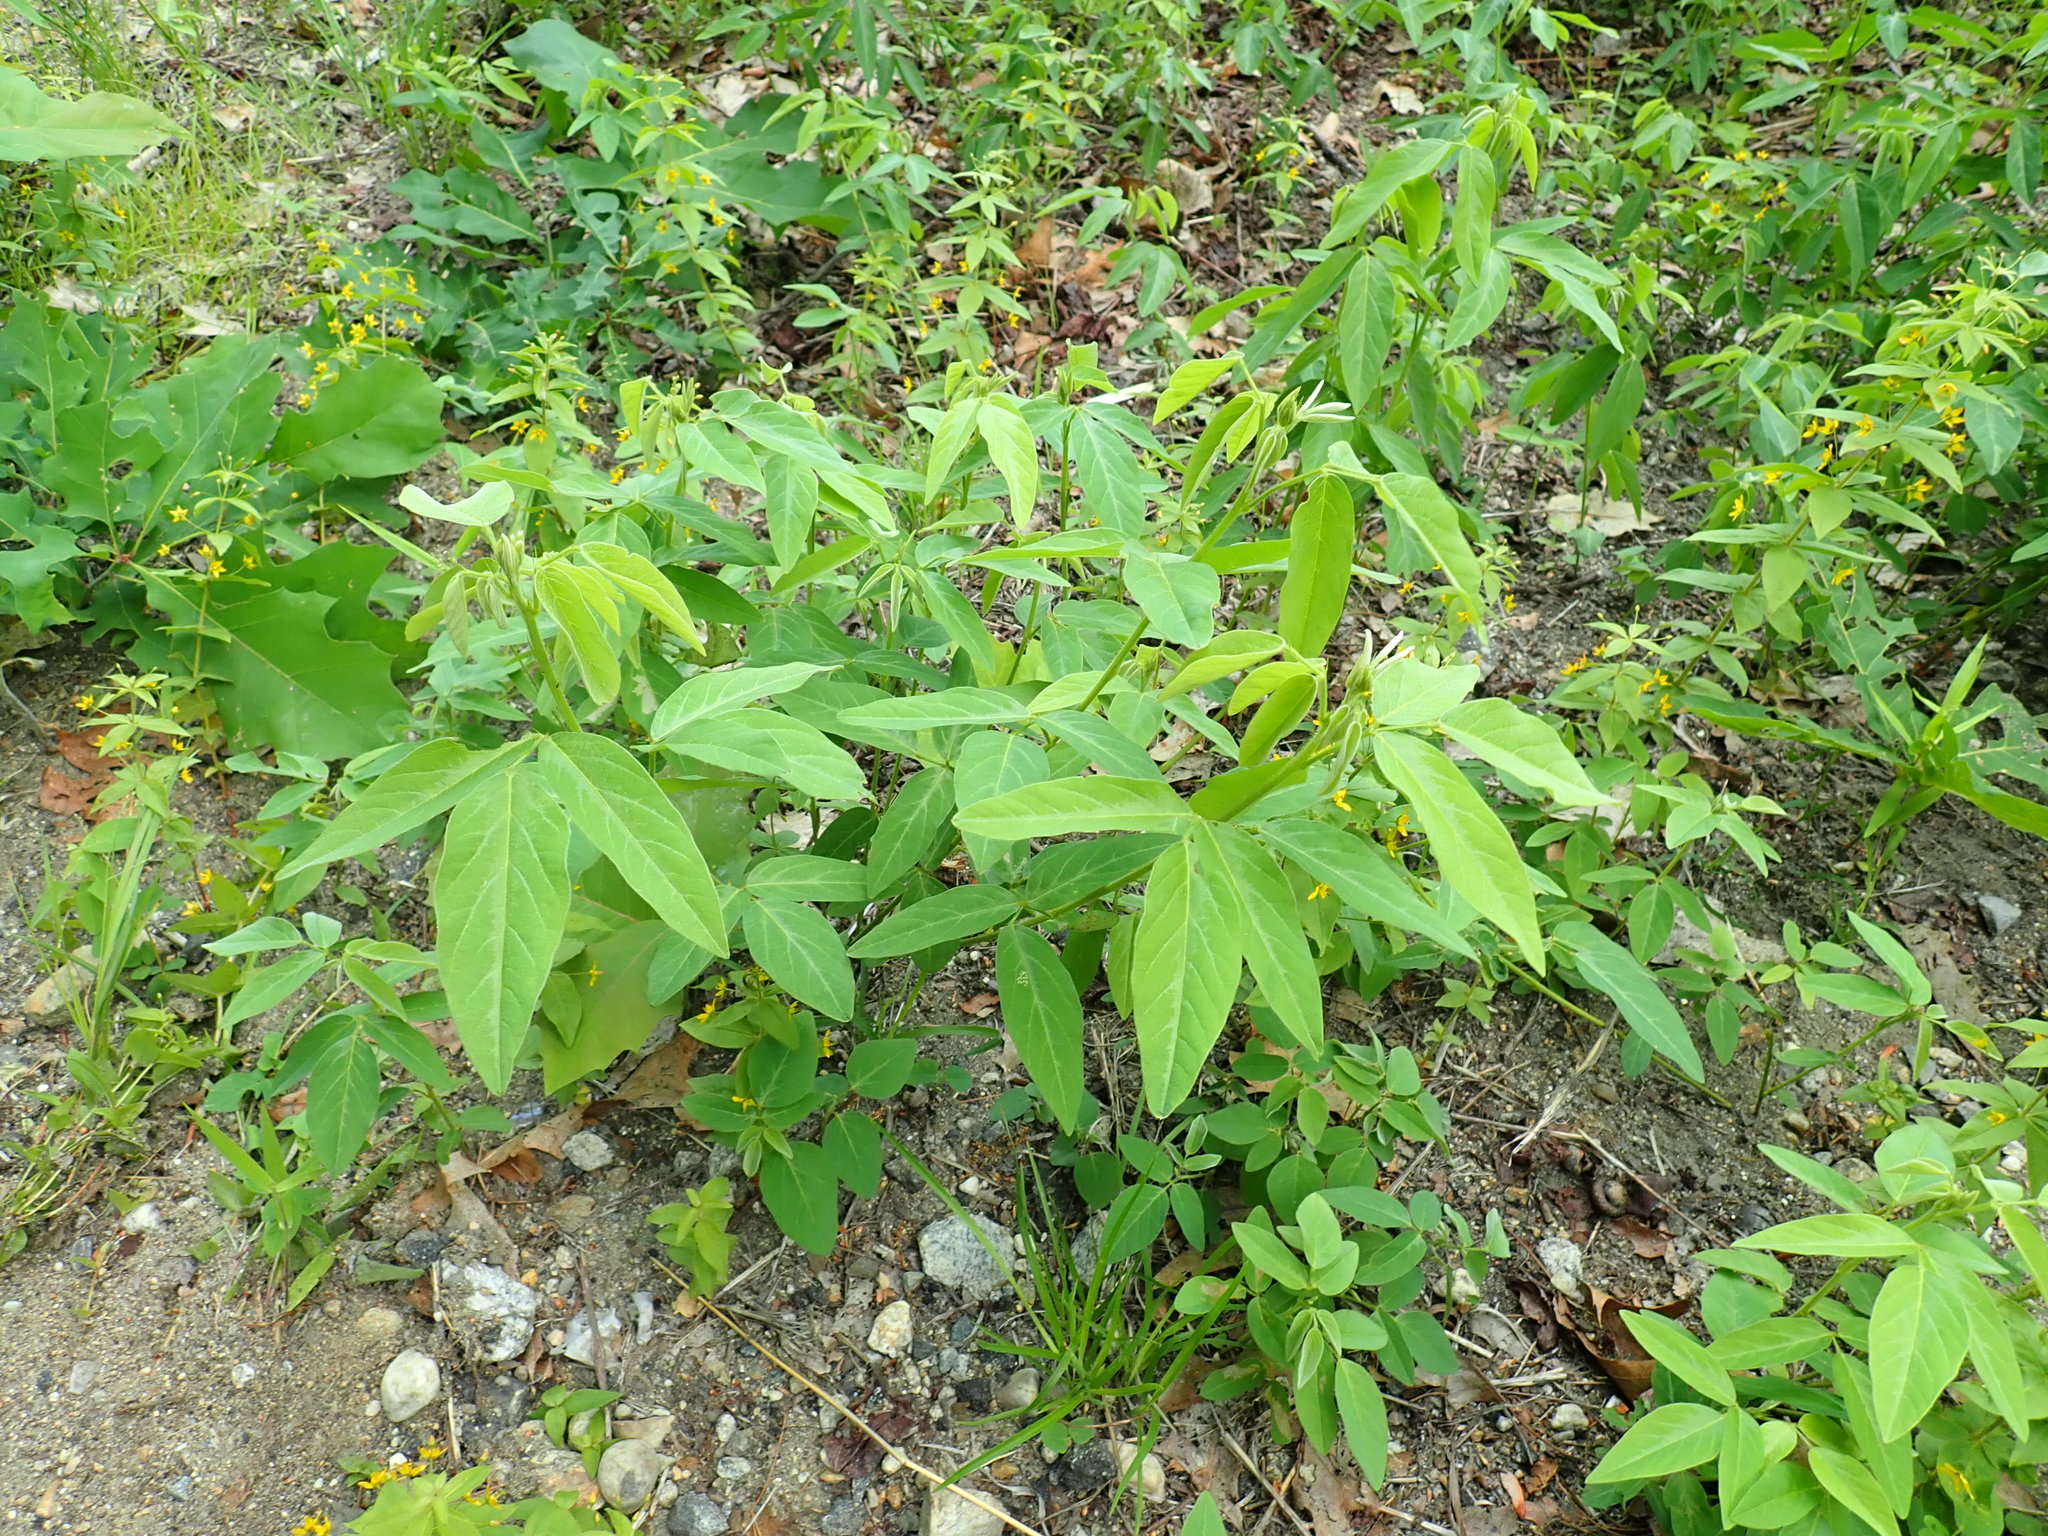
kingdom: Plantae
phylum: Tracheophyta
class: Magnoliopsida
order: Fabales
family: Fabaceae
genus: Desmodium
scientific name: Desmodium
